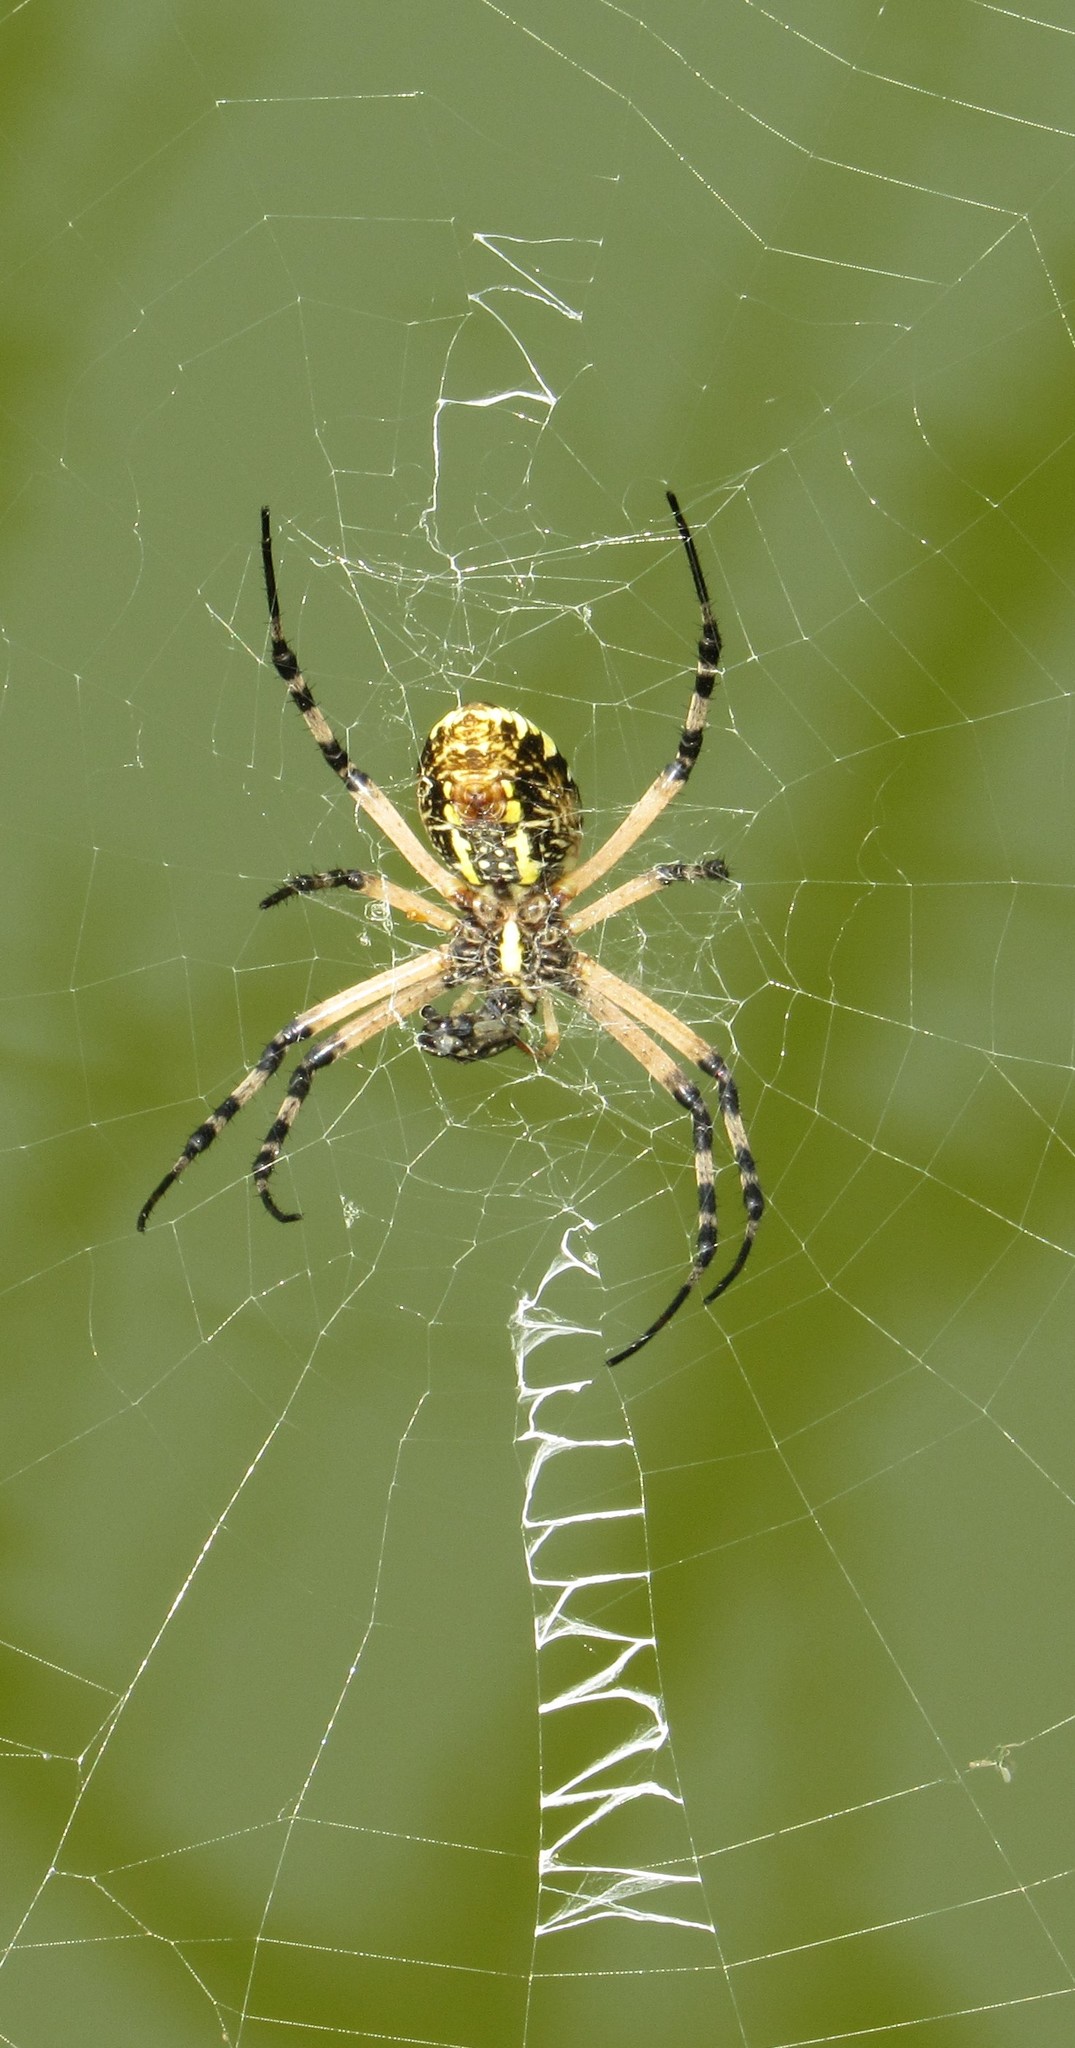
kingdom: Animalia
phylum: Arthropoda
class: Arachnida
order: Araneae
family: Araneidae
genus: Argiope
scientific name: Argiope aurantia
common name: Orb weavers
